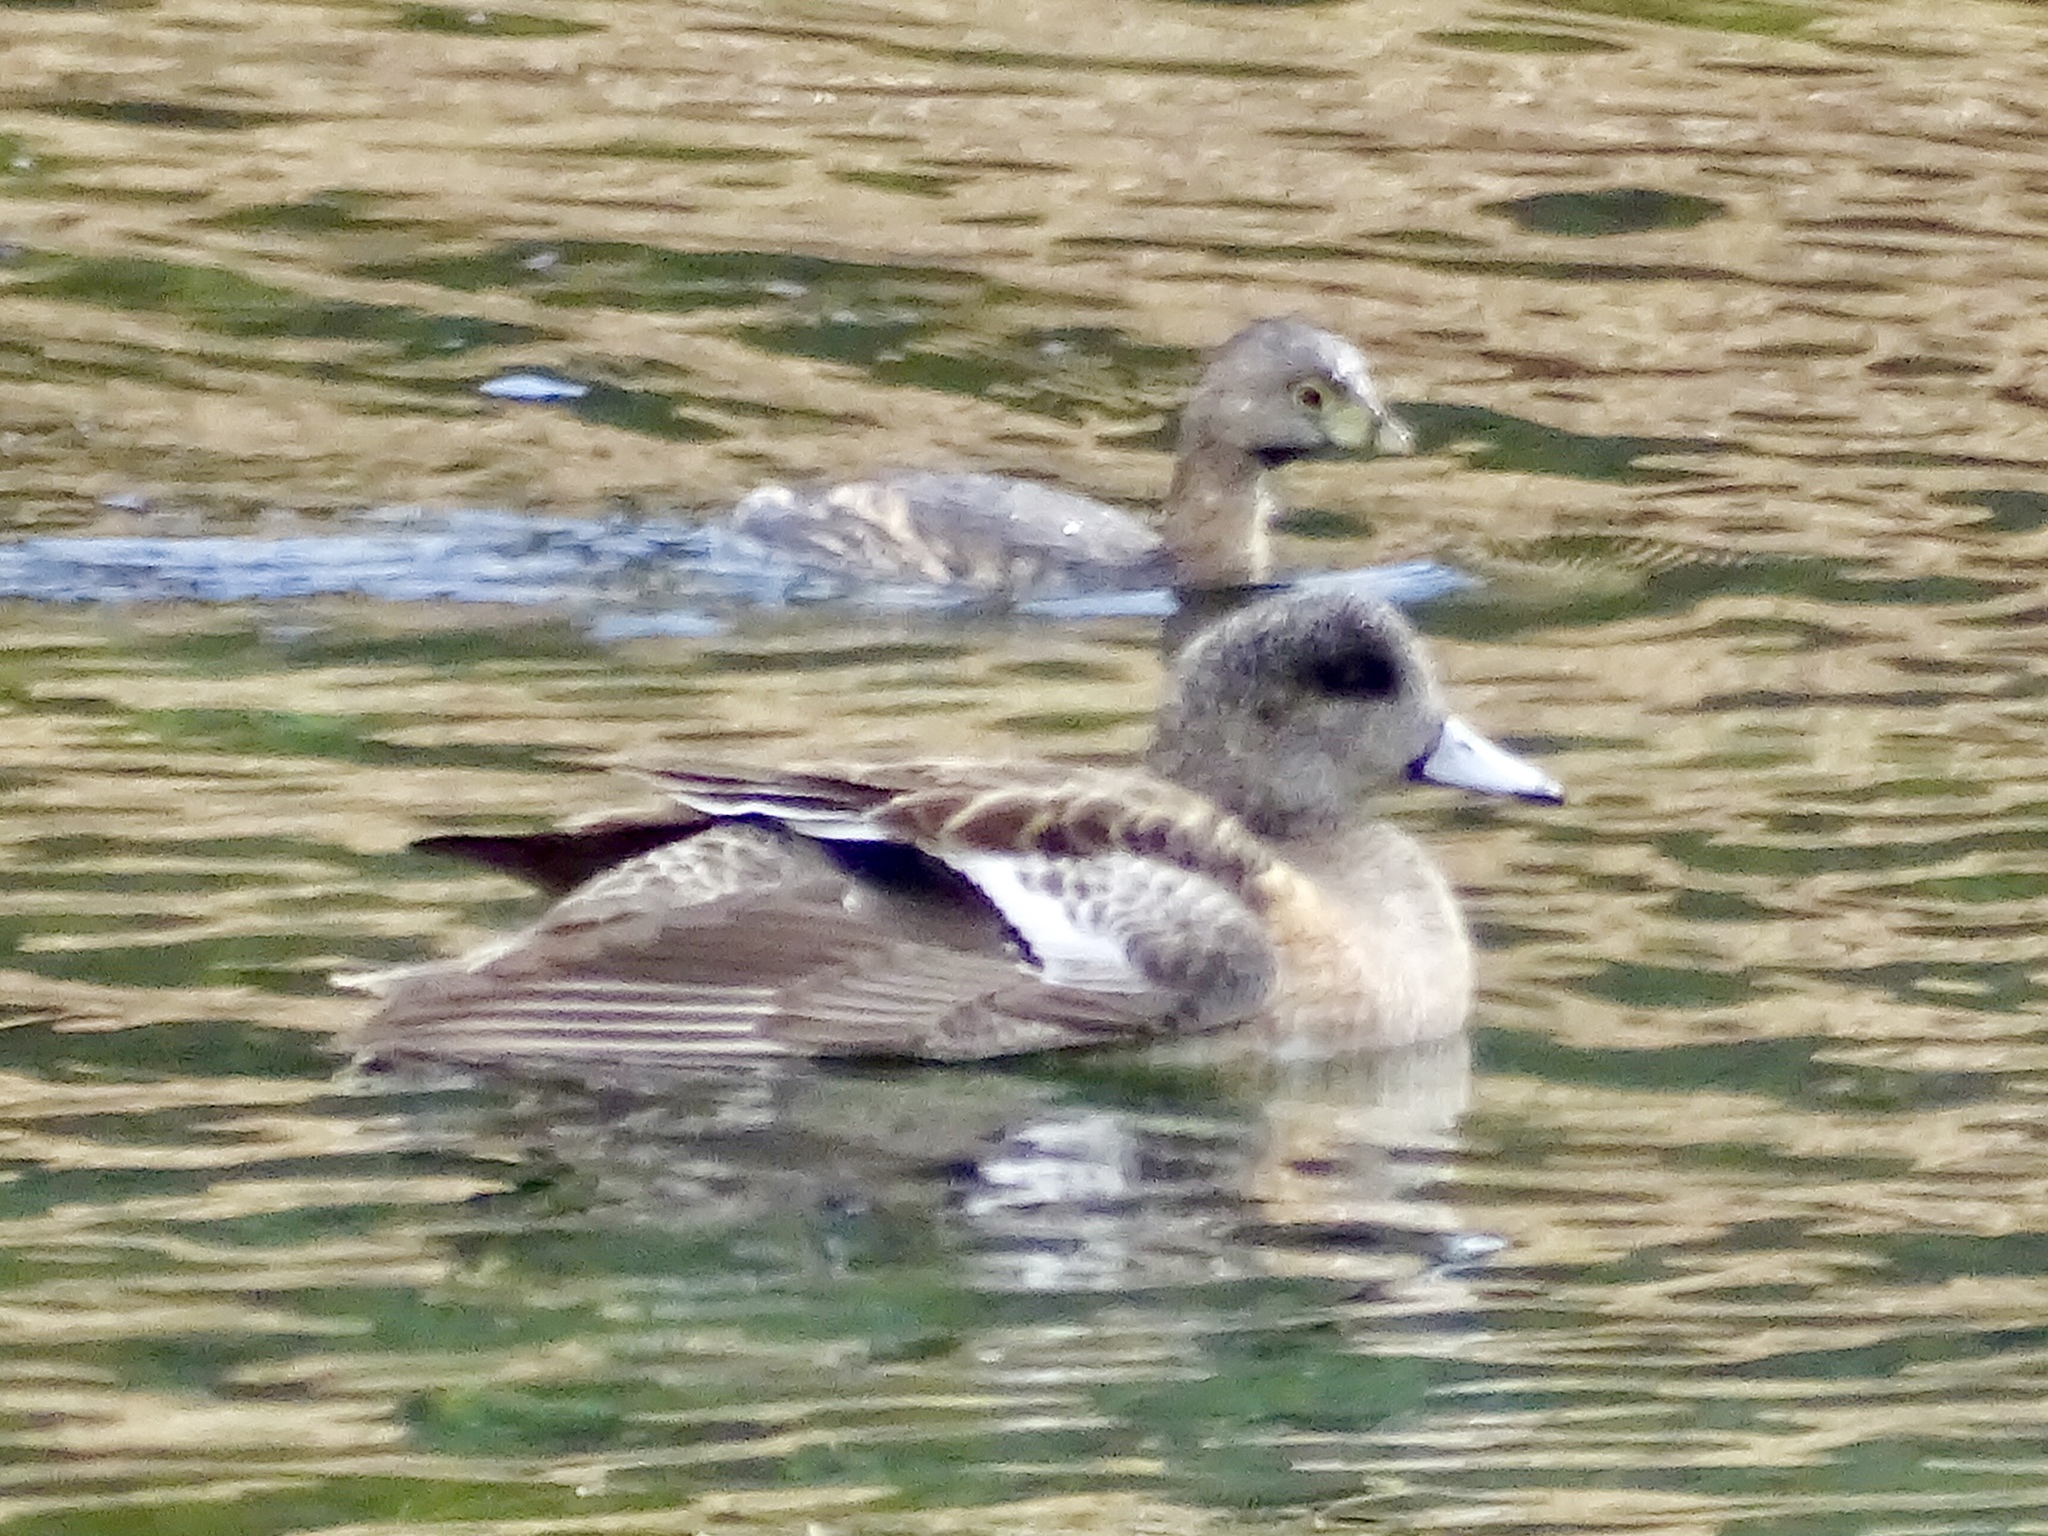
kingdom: Animalia
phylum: Chordata
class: Aves
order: Anseriformes
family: Anatidae
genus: Mareca
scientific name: Mareca americana
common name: American wigeon
